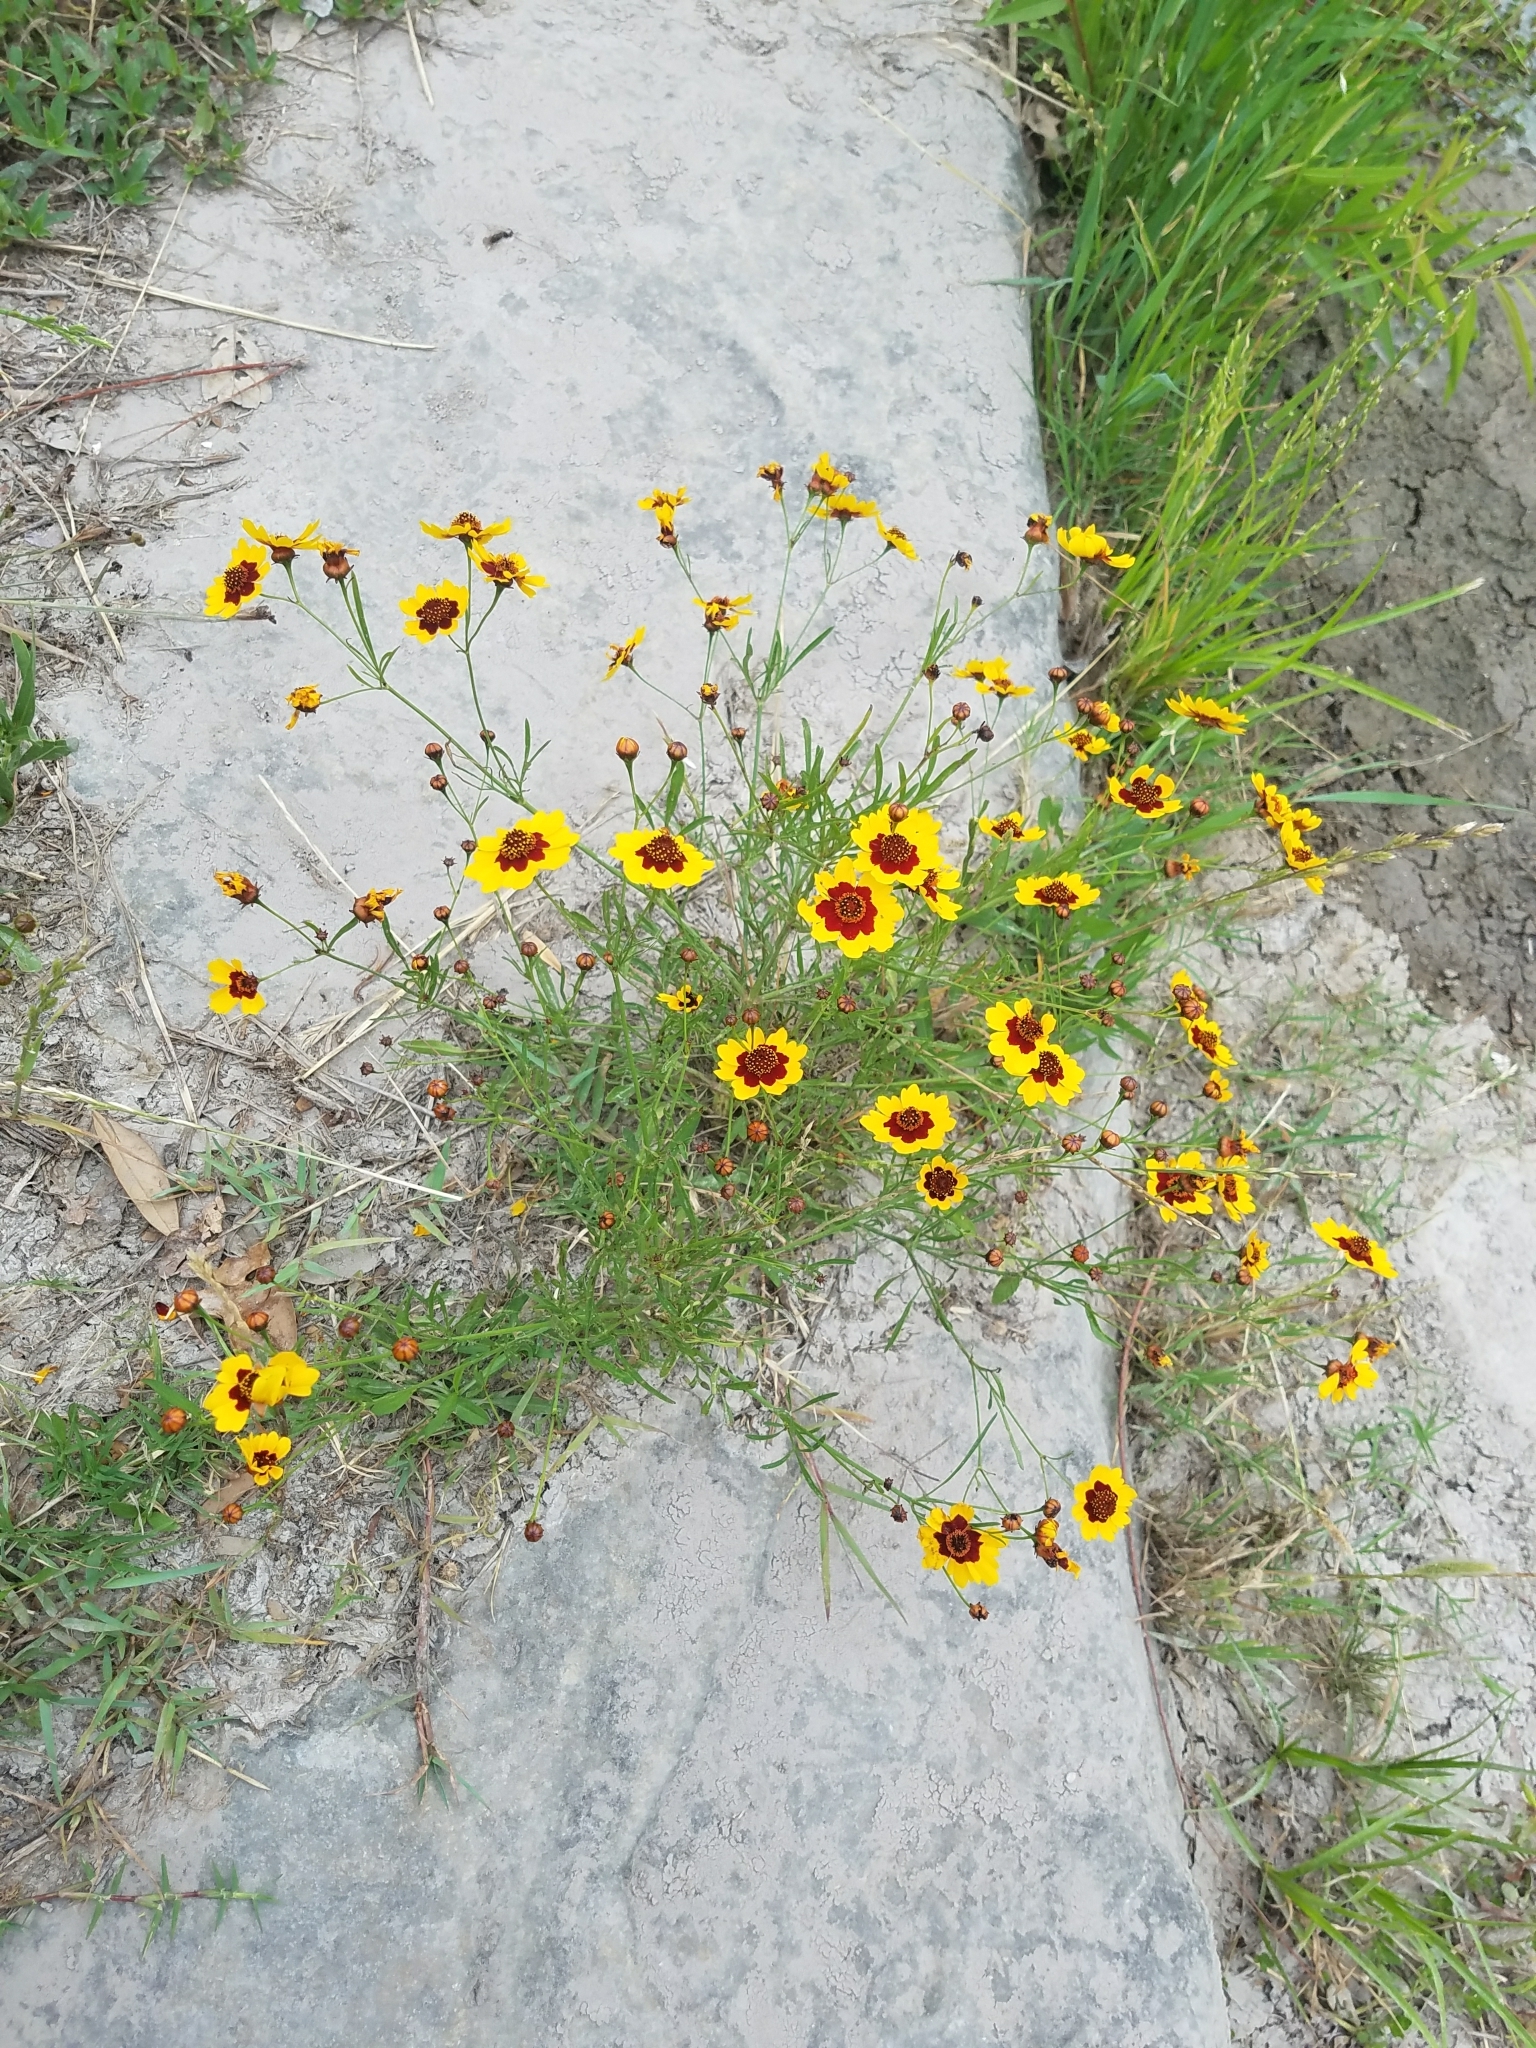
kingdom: Plantae
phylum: Tracheophyta
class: Magnoliopsida
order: Asterales
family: Asteraceae
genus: Coreopsis
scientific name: Coreopsis tinctoria
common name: Garden tickseed
